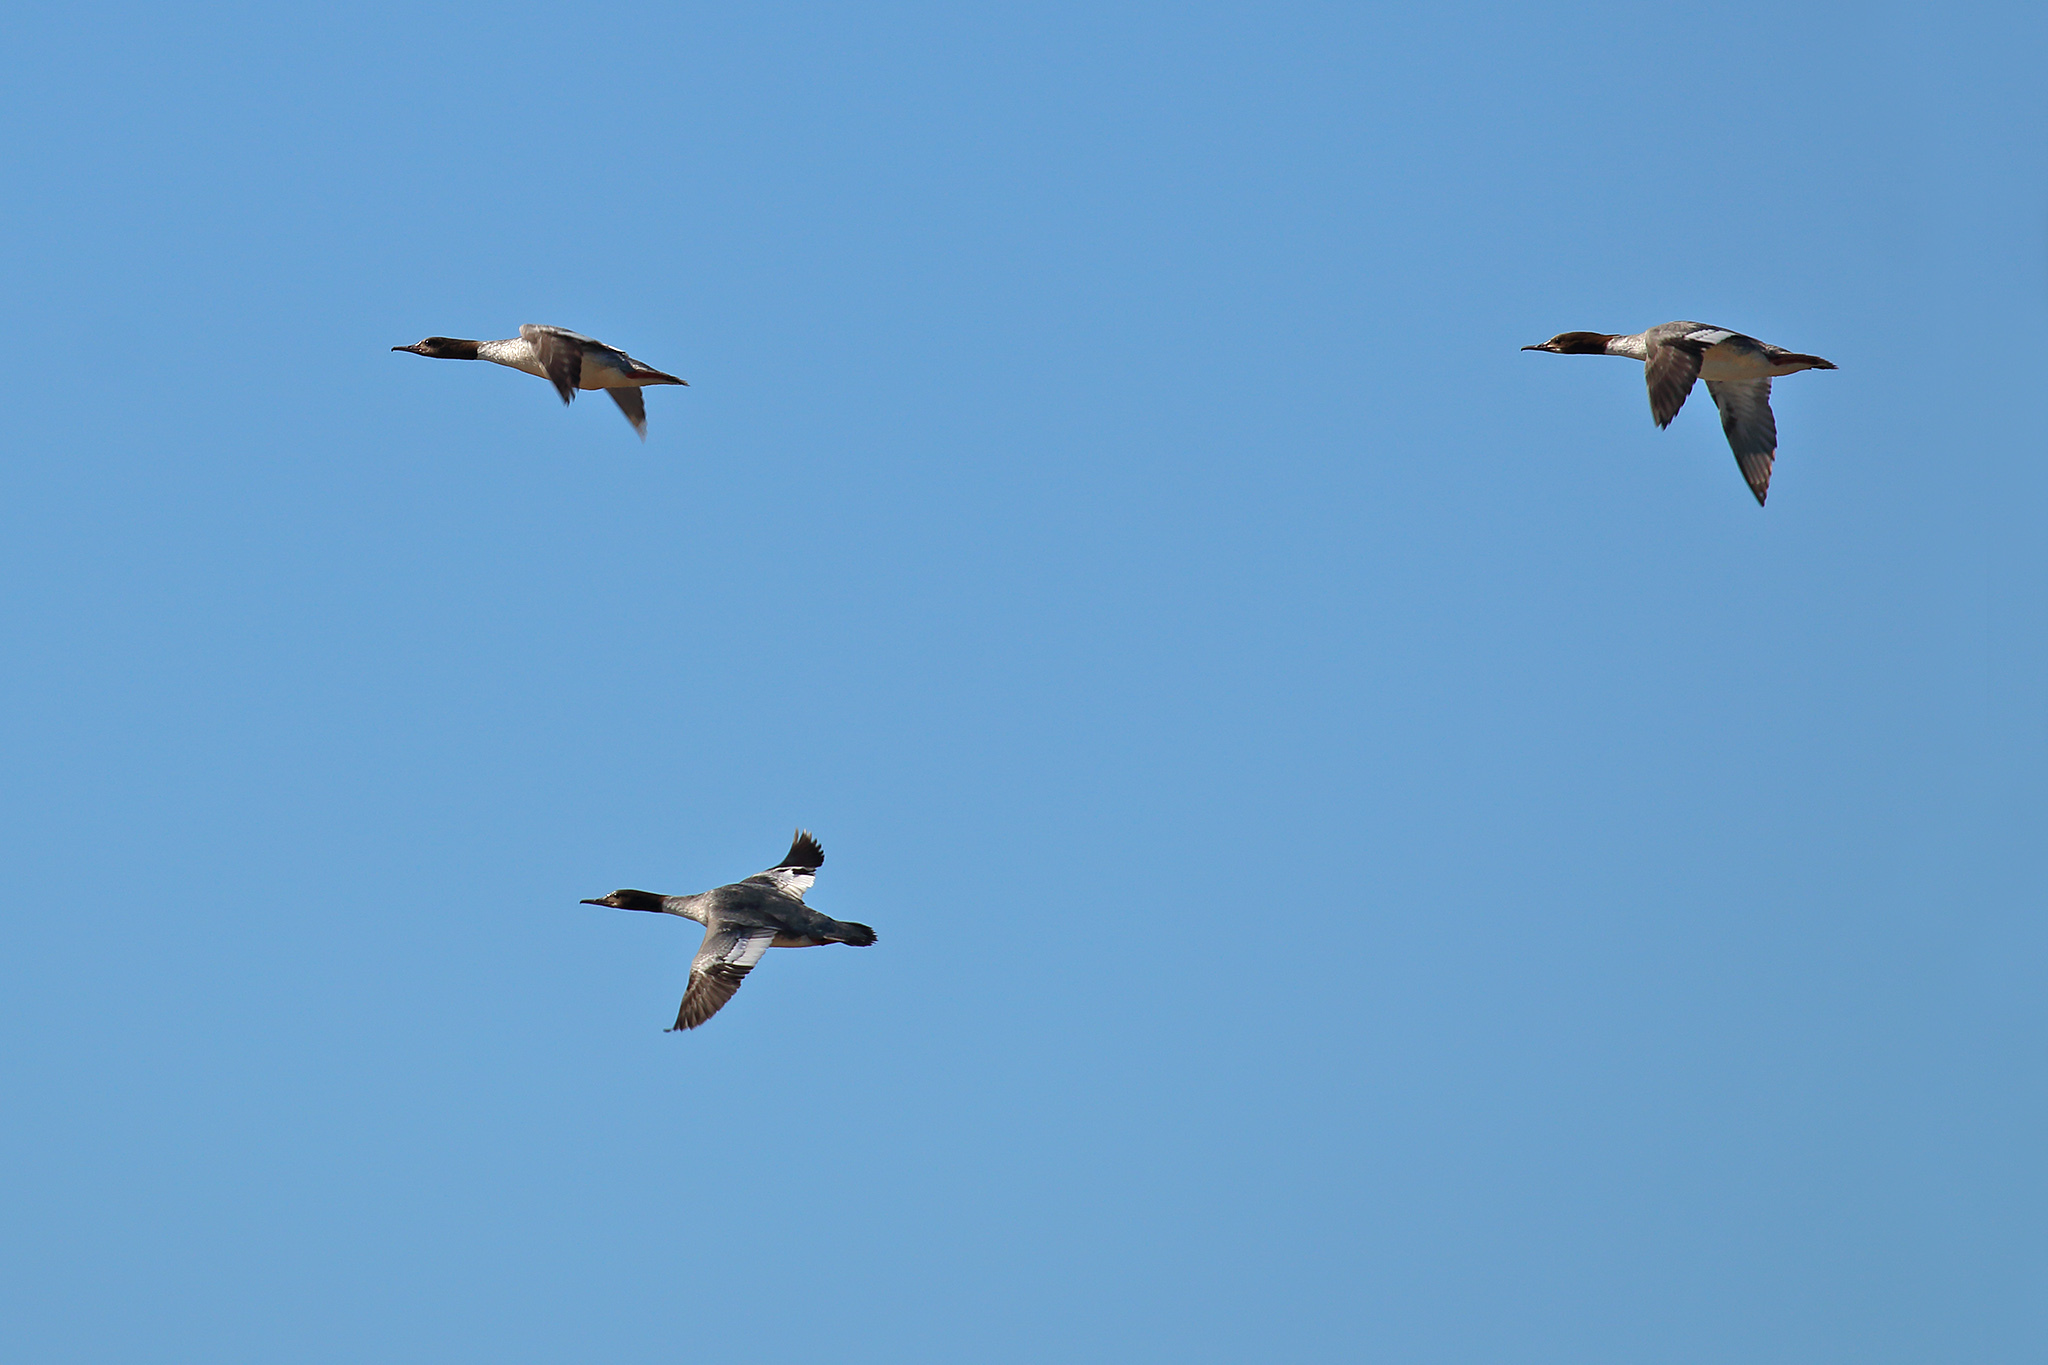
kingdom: Animalia
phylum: Chordata
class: Aves
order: Anseriformes
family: Anatidae
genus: Mergus
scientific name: Mergus merganser
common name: Common merganser
